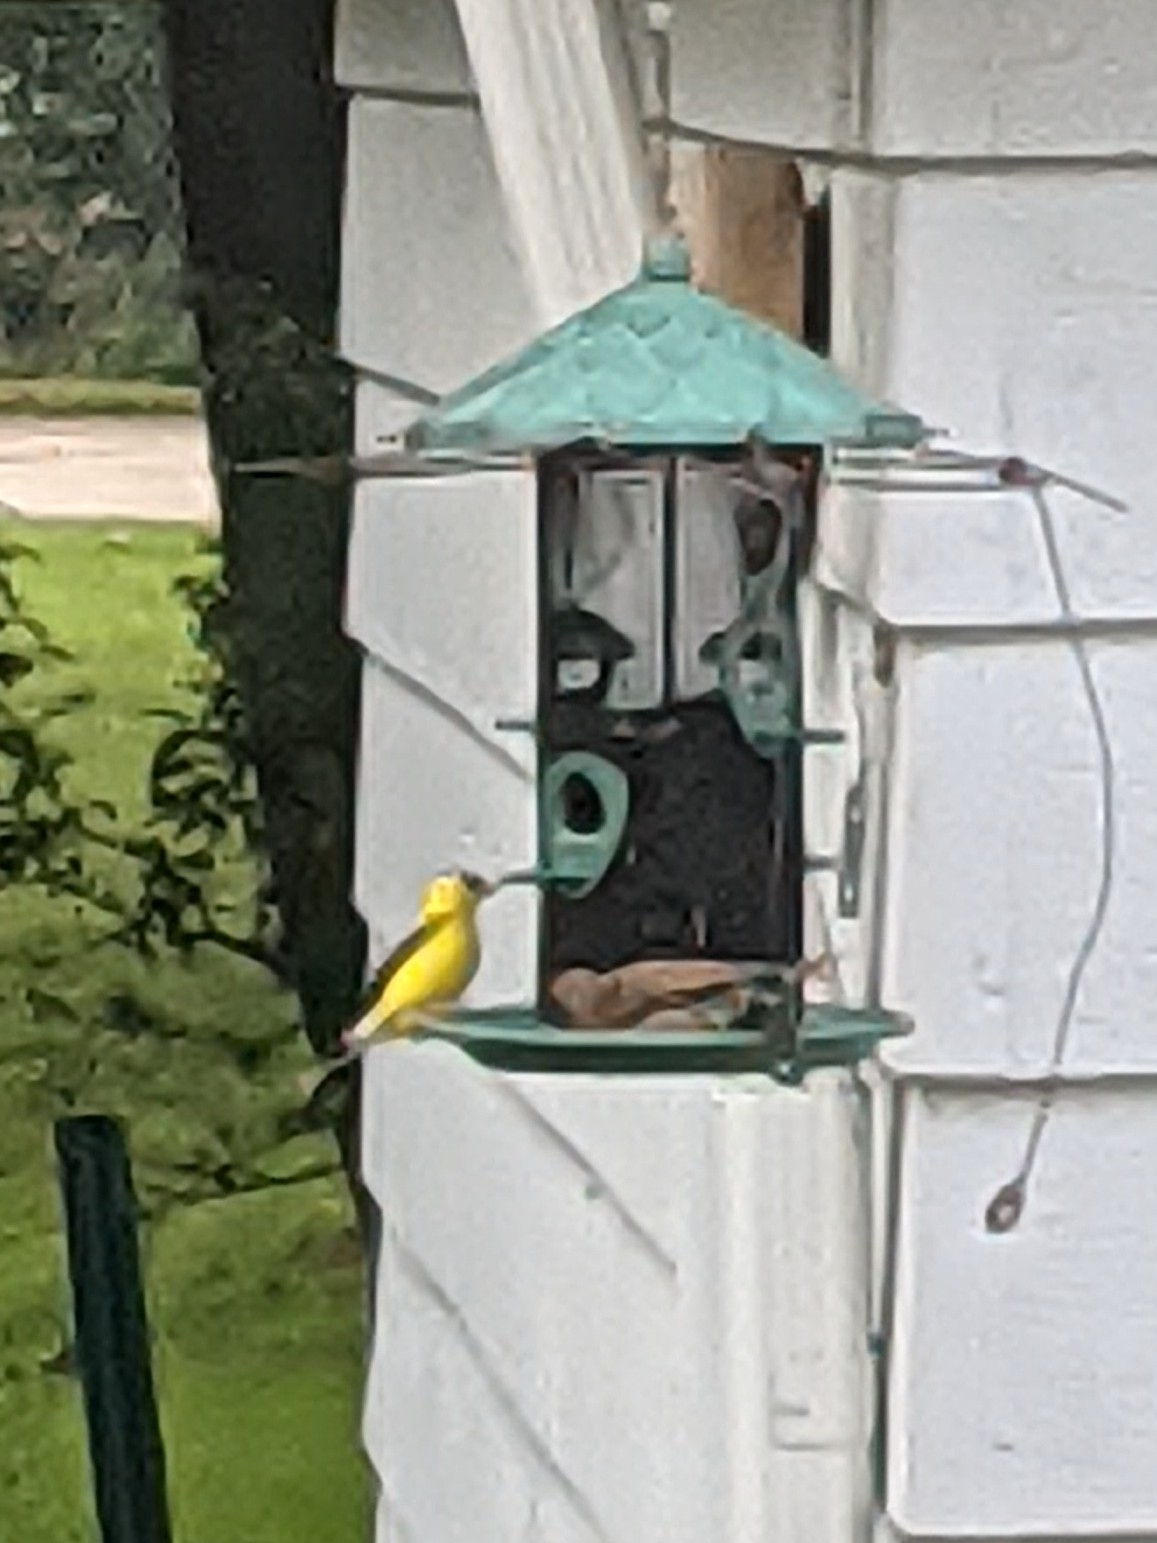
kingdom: Animalia
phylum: Chordata
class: Aves
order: Passeriformes
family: Fringillidae
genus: Spinus
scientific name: Spinus tristis
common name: American goldfinch
